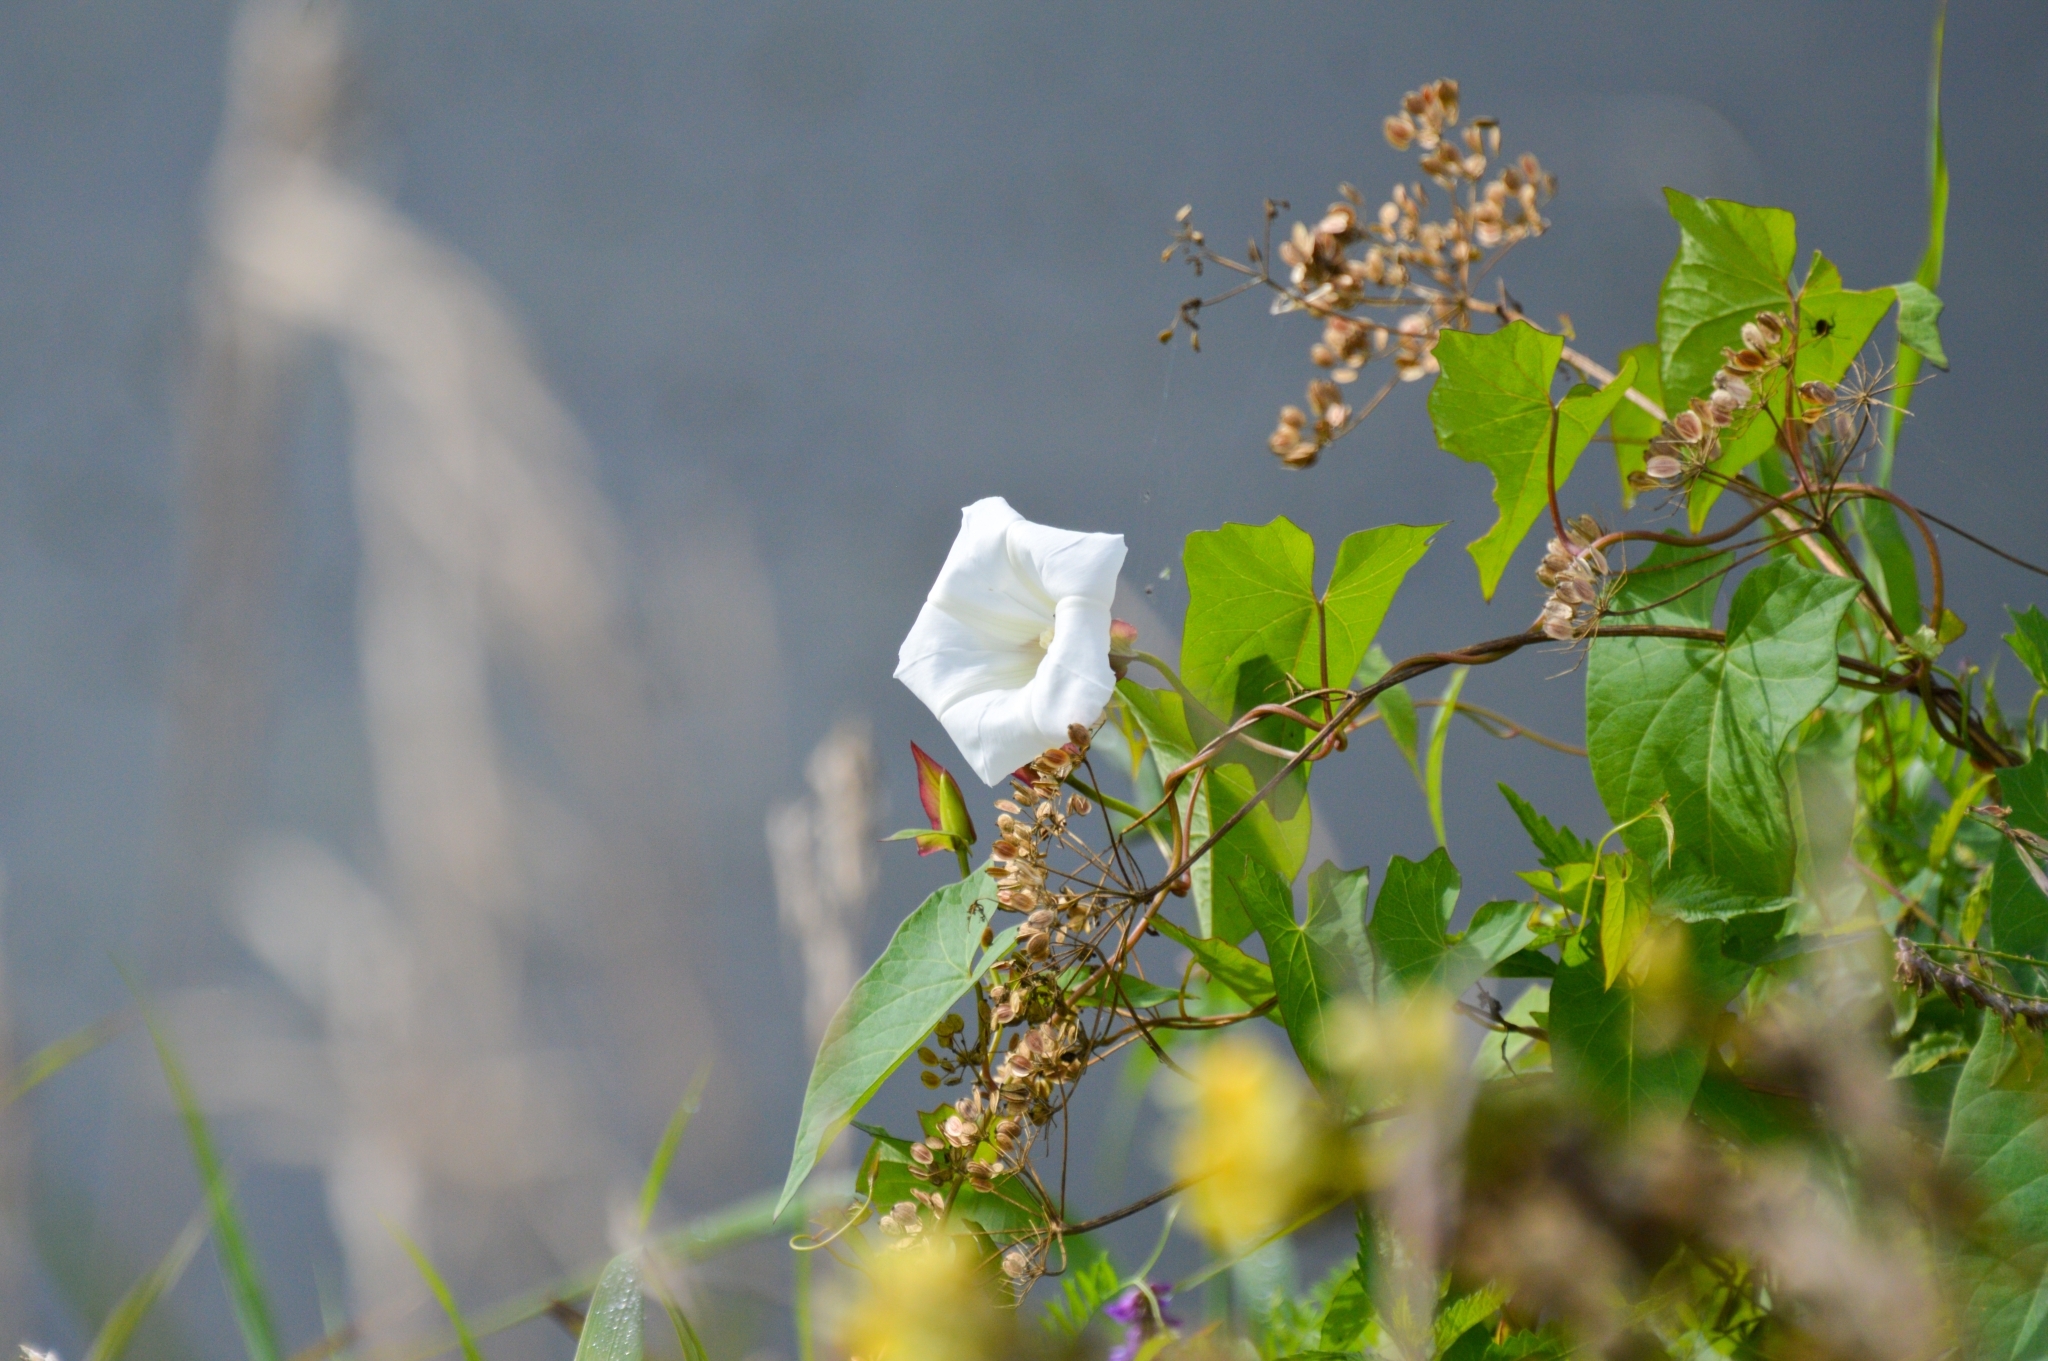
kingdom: Plantae
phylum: Tracheophyta
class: Magnoliopsida
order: Solanales
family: Convolvulaceae
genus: Calystegia
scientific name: Calystegia sepium
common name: Hedge bindweed
